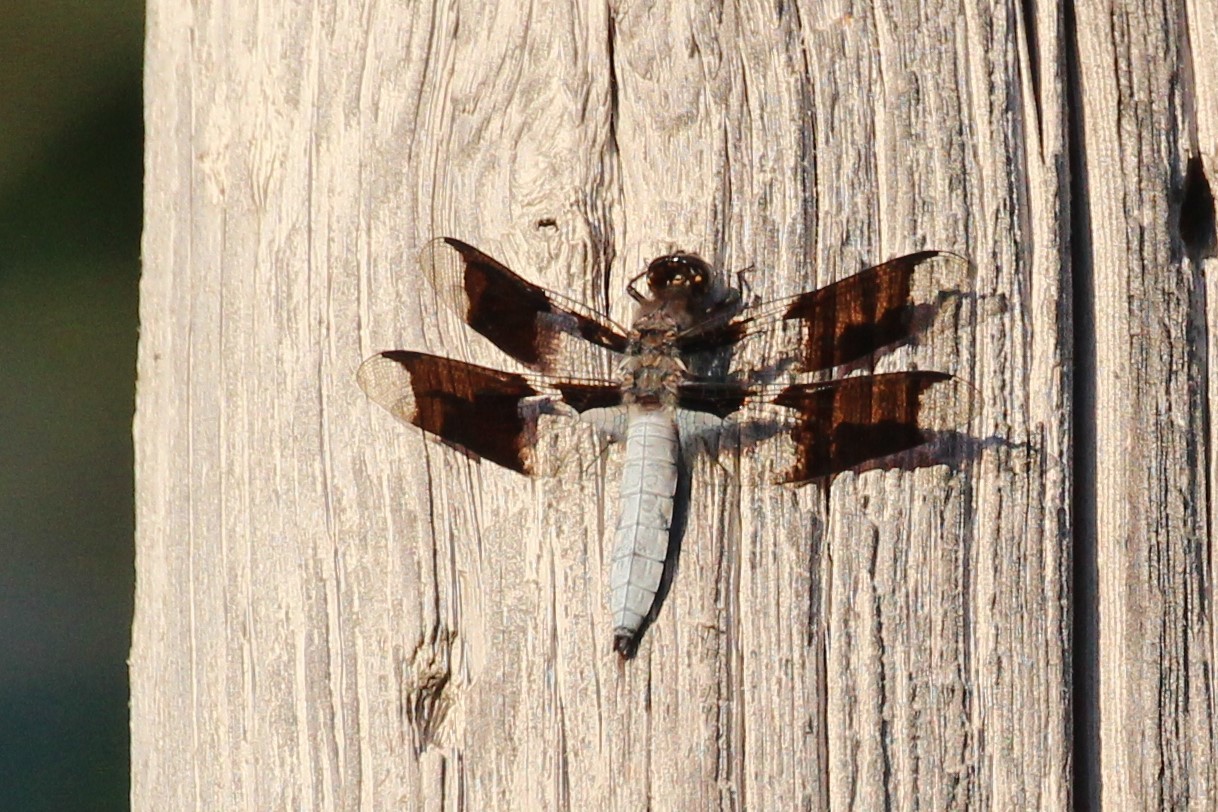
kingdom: Animalia
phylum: Arthropoda
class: Insecta
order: Odonata
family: Libellulidae
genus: Plathemis
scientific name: Plathemis lydia
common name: Common whitetail
